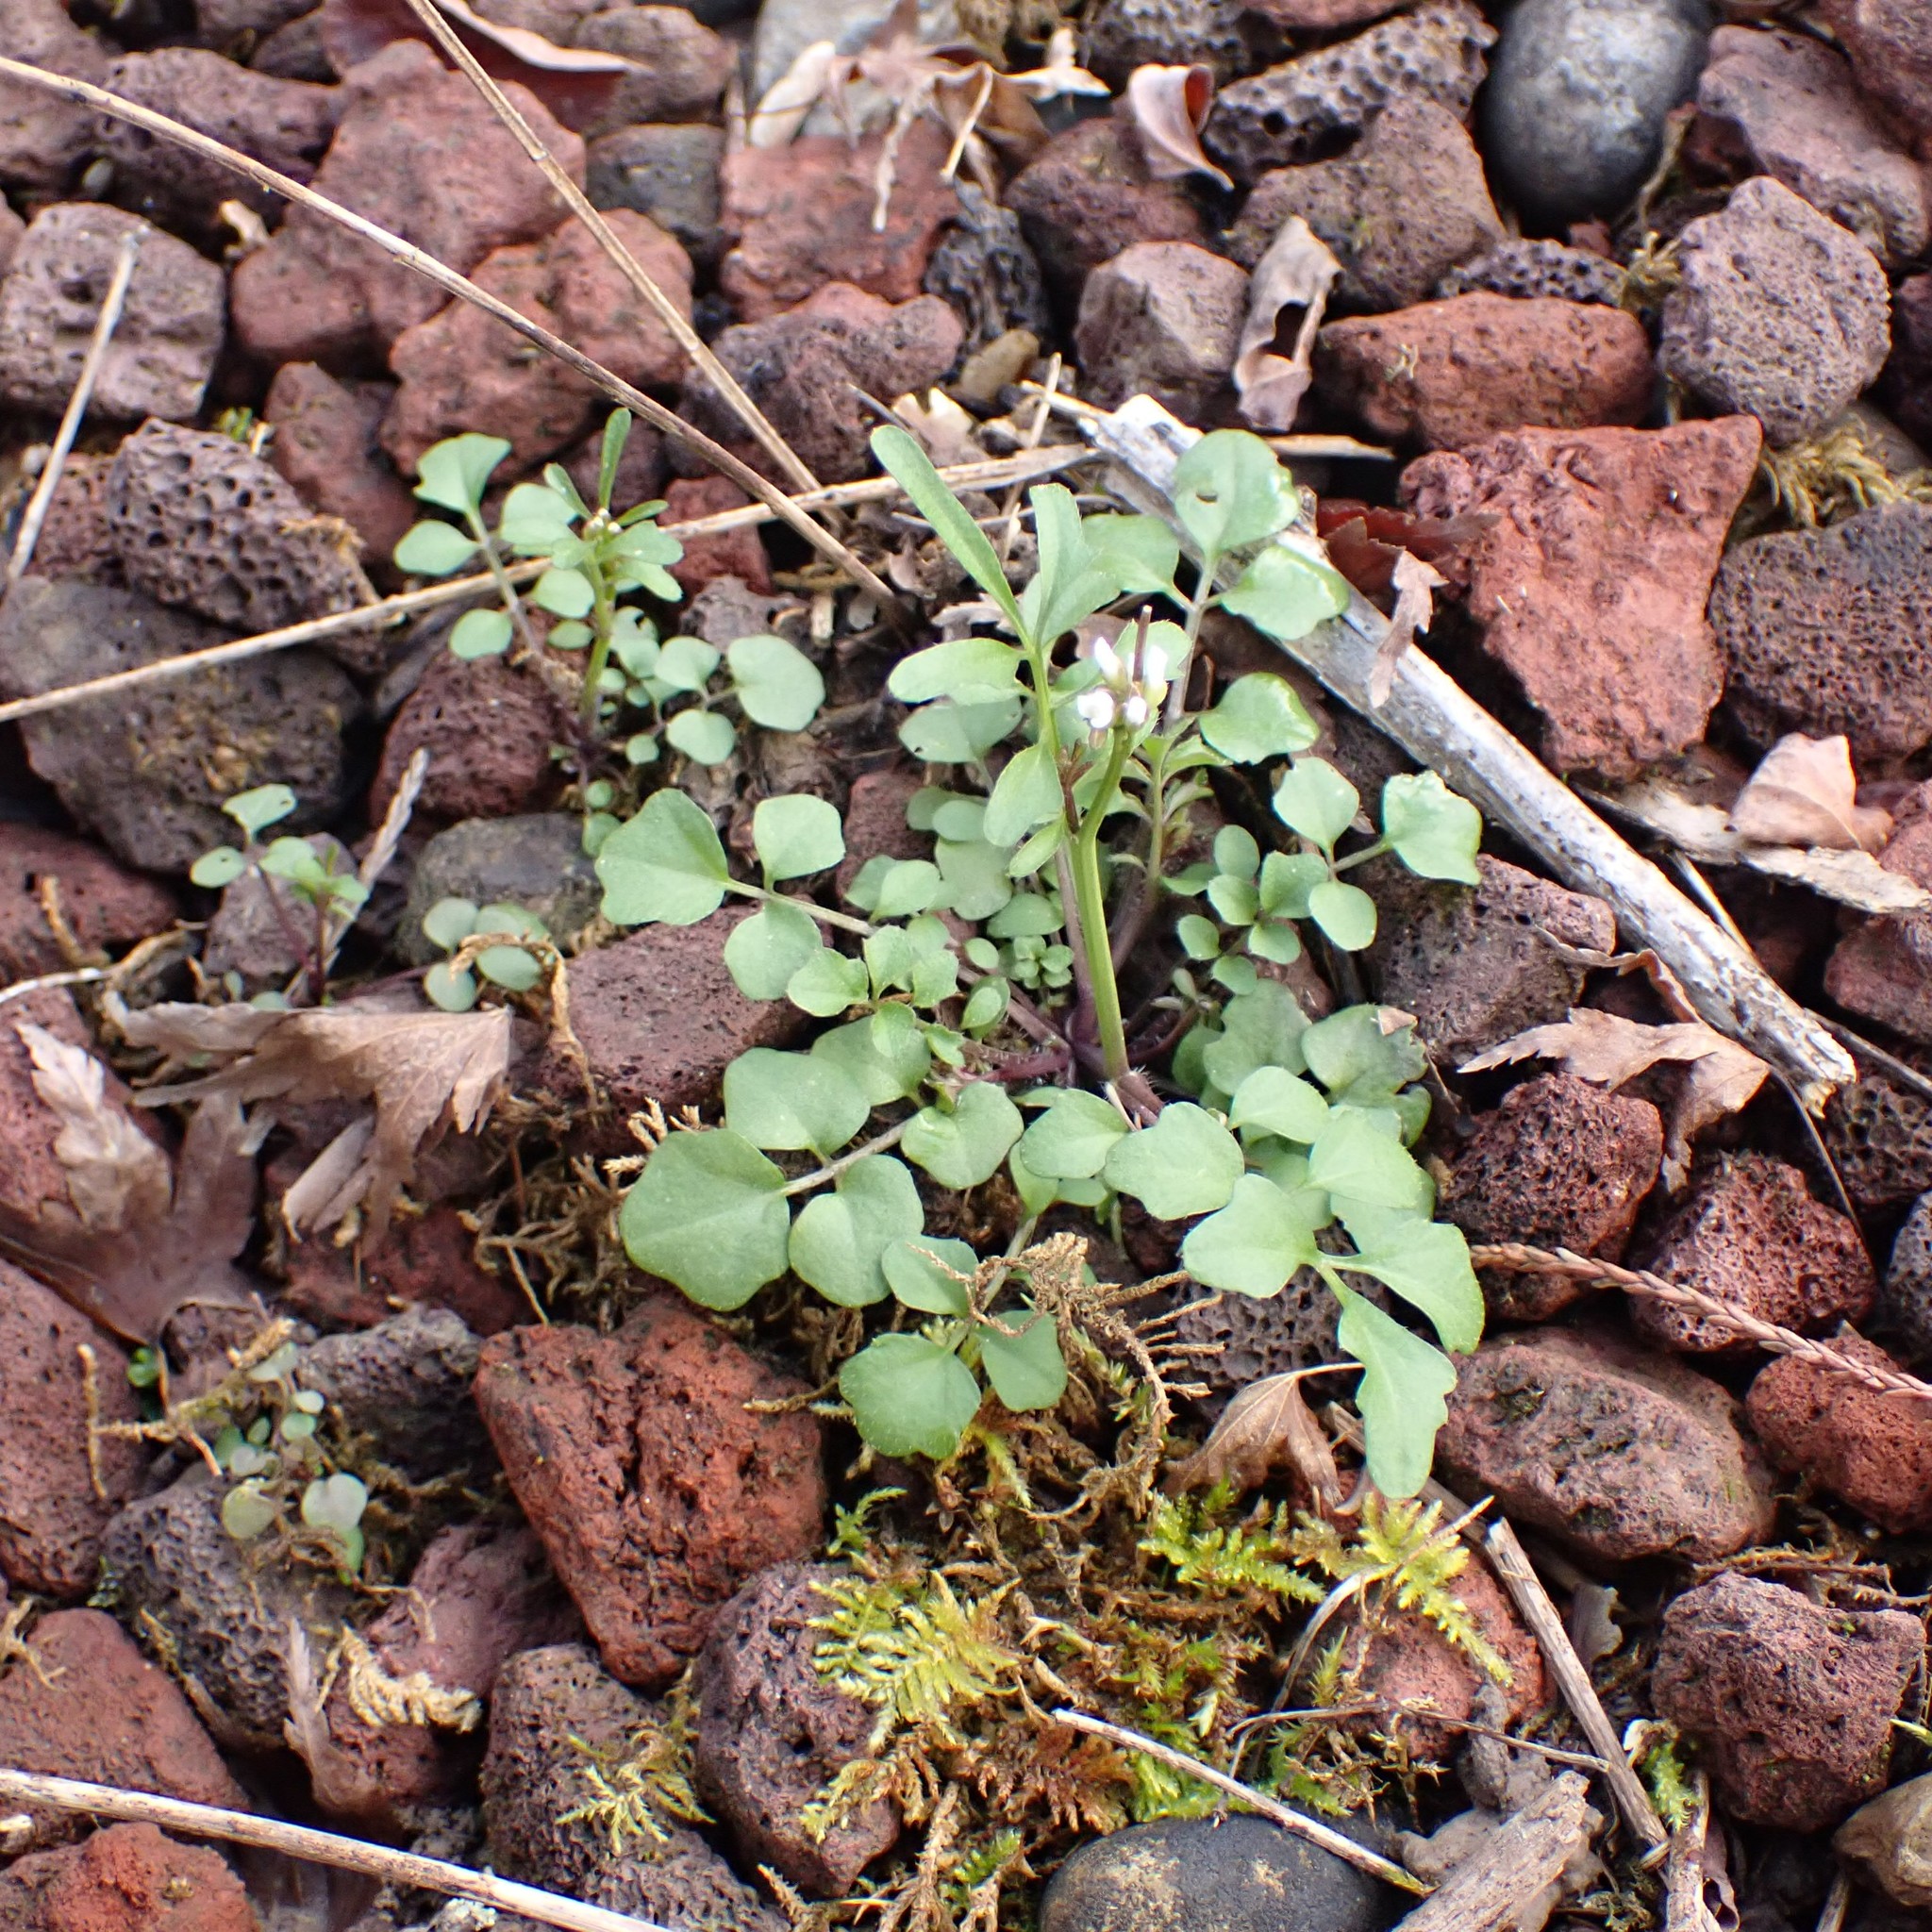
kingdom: Plantae
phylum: Tracheophyta
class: Magnoliopsida
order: Brassicales
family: Brassicaceae
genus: Cardamine
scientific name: Cardamine hirsuta
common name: Hairy bittercress
